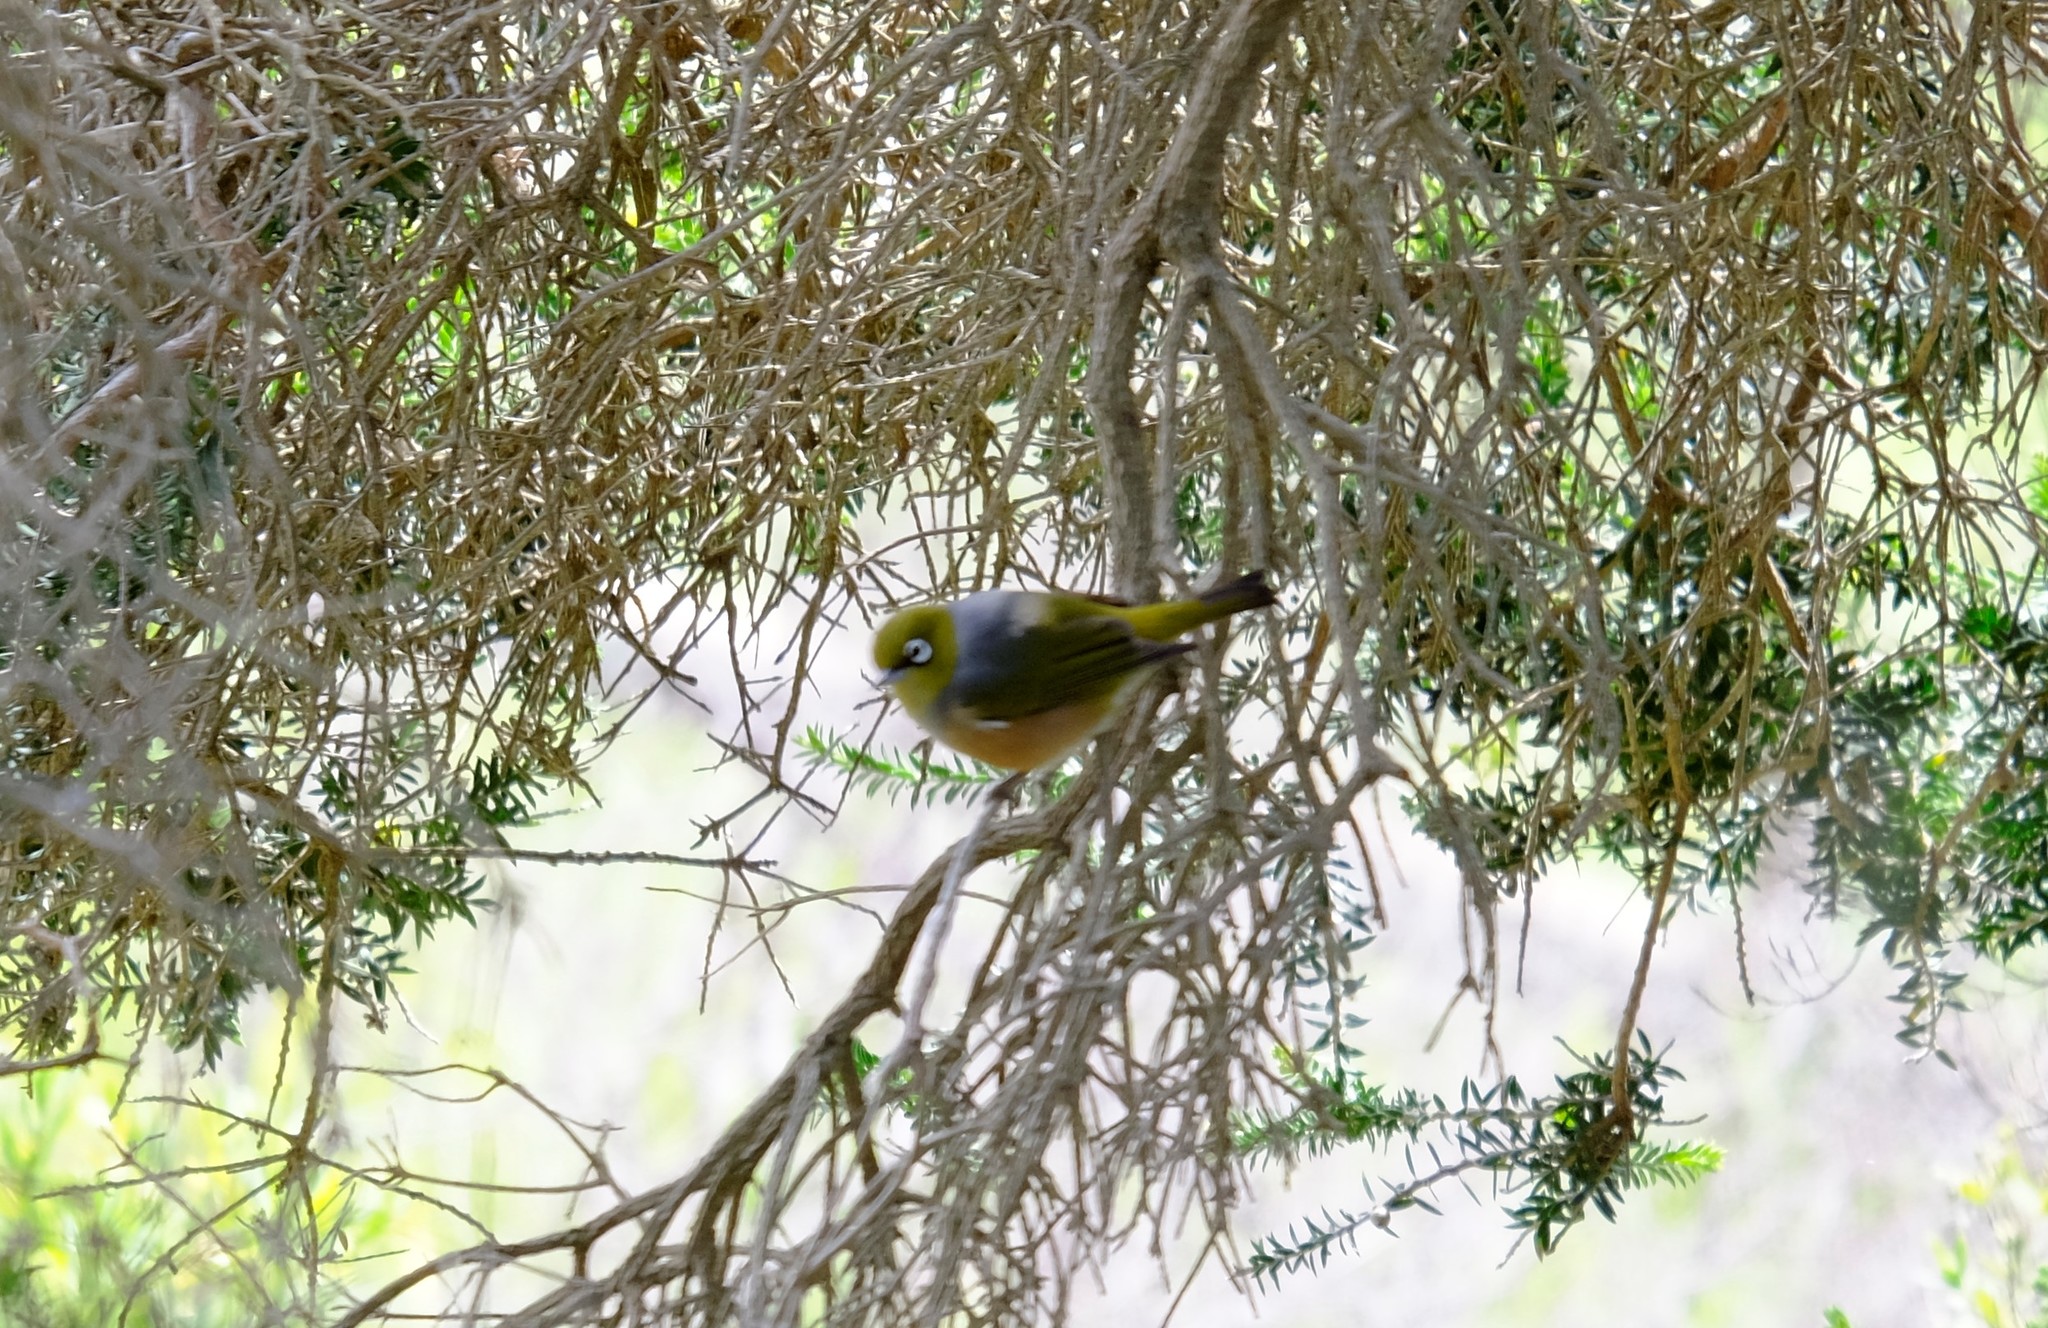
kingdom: Animalia
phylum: Chordata
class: Aves
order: Passeriformes
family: Zosteropidae
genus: Zosterops
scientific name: Zosterops lateralis
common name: Silvereye
